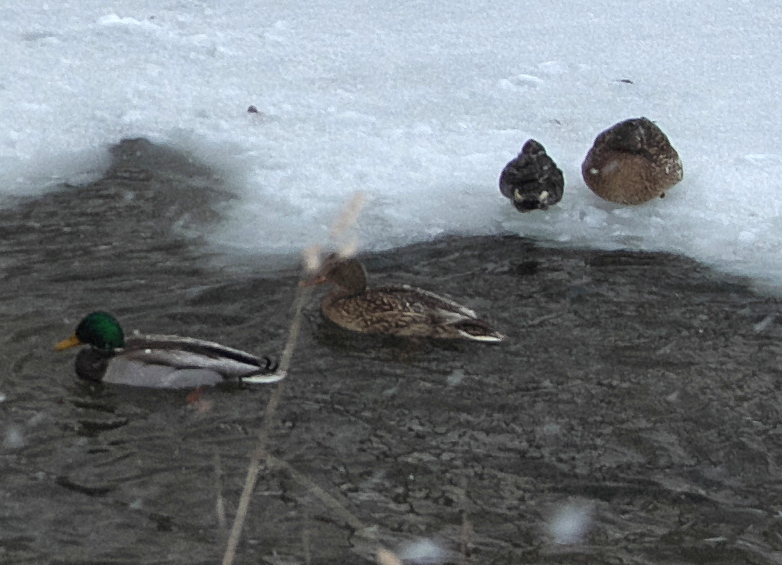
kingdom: Animalia
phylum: Chordata
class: Aves
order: Anseriformes
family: Anatidae
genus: Anas
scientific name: Anas crecca
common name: Eurasian teal
